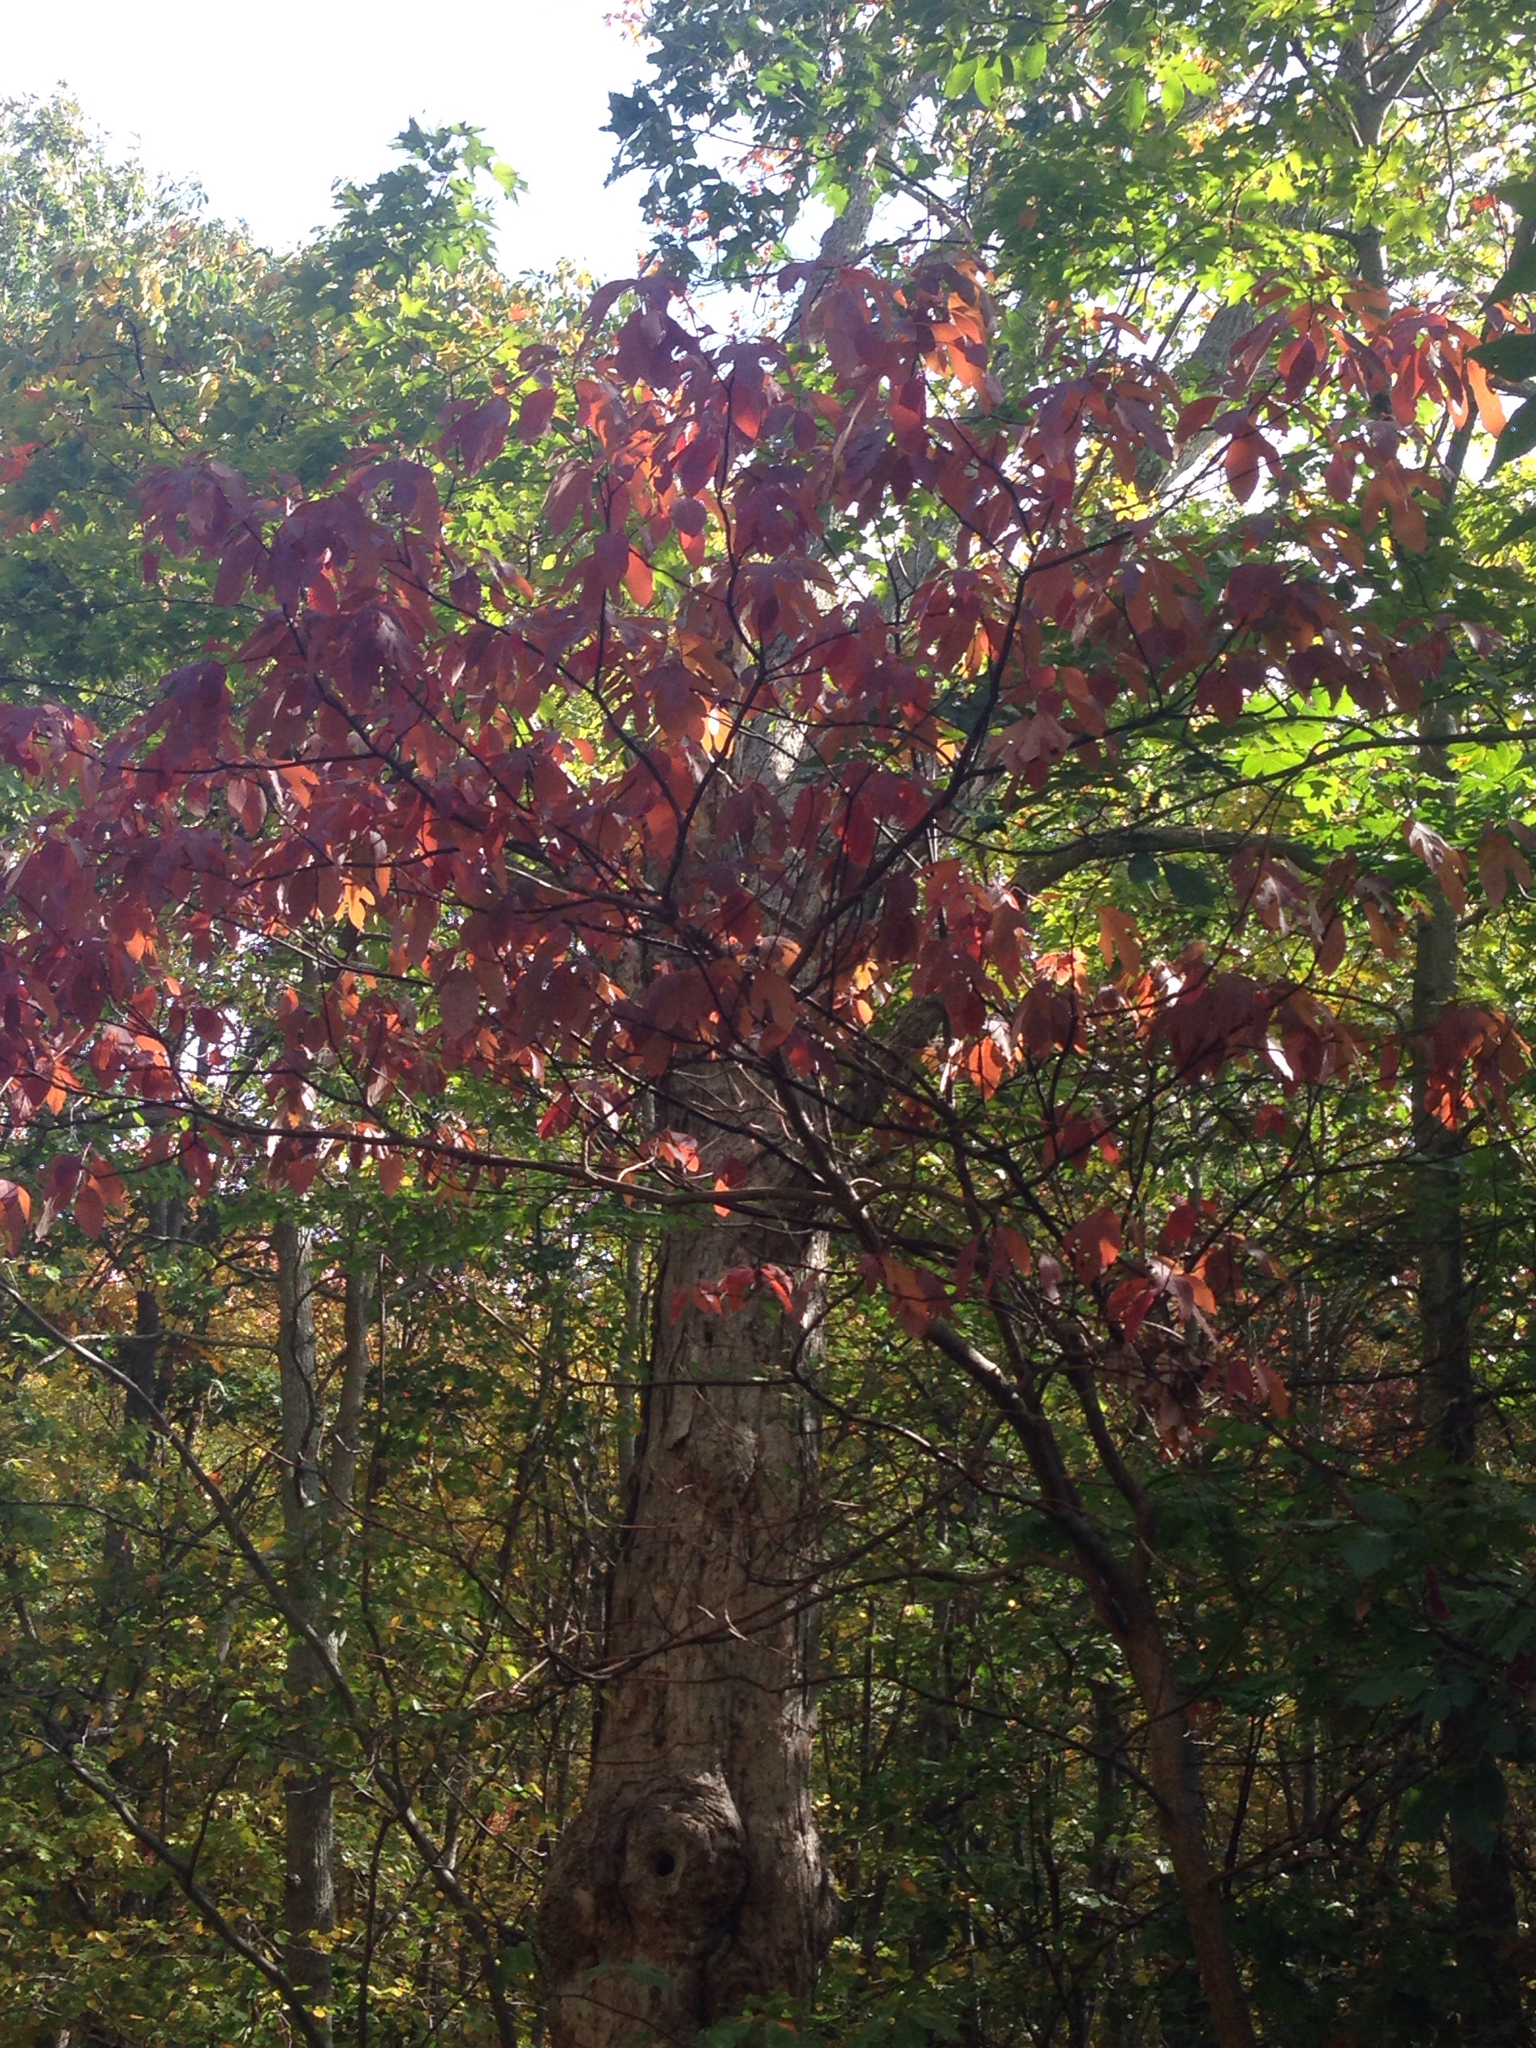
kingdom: Plantae
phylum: Tracheophyta
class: Magnoliopsida
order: Laurales
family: Lauraceae
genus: Sassafras
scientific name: Sassafras albidum
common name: Sassafras
